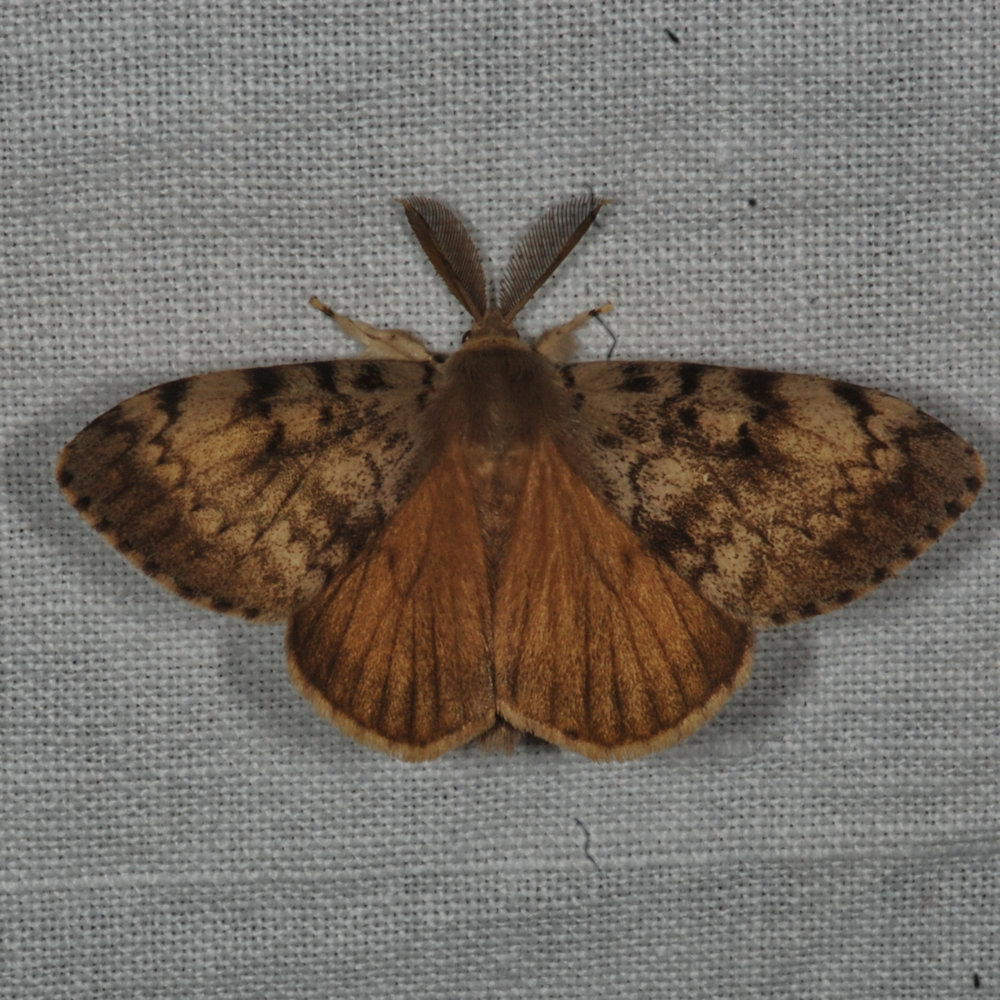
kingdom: Animalia
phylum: Arthropoda
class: Insecta
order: Lepidoptera
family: Erebidae
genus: Lymantria
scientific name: Lymantria dispar
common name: Gypsy moth
